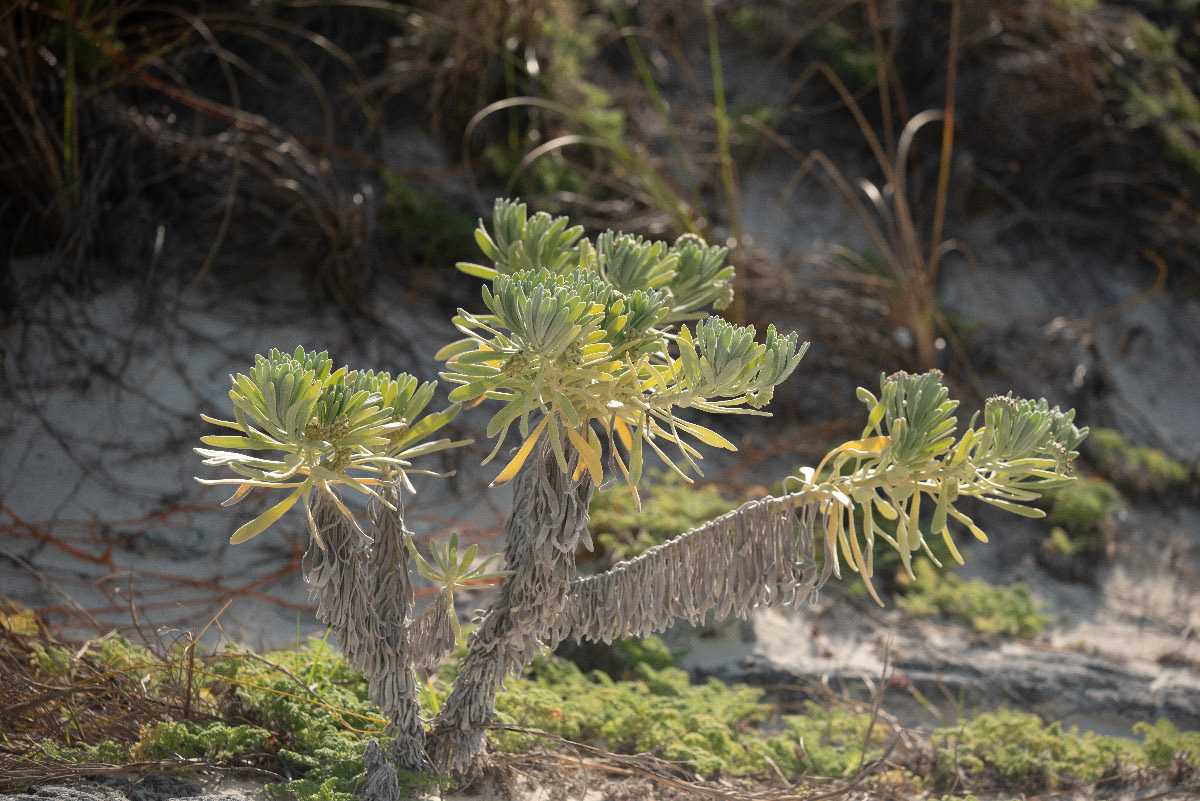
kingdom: Plantae
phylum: Tracheophyta
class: Magnoliopsida
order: Boraginales
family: Heliotropiaceae
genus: Tournefortia
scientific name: Tournefortia gnaphalodes
